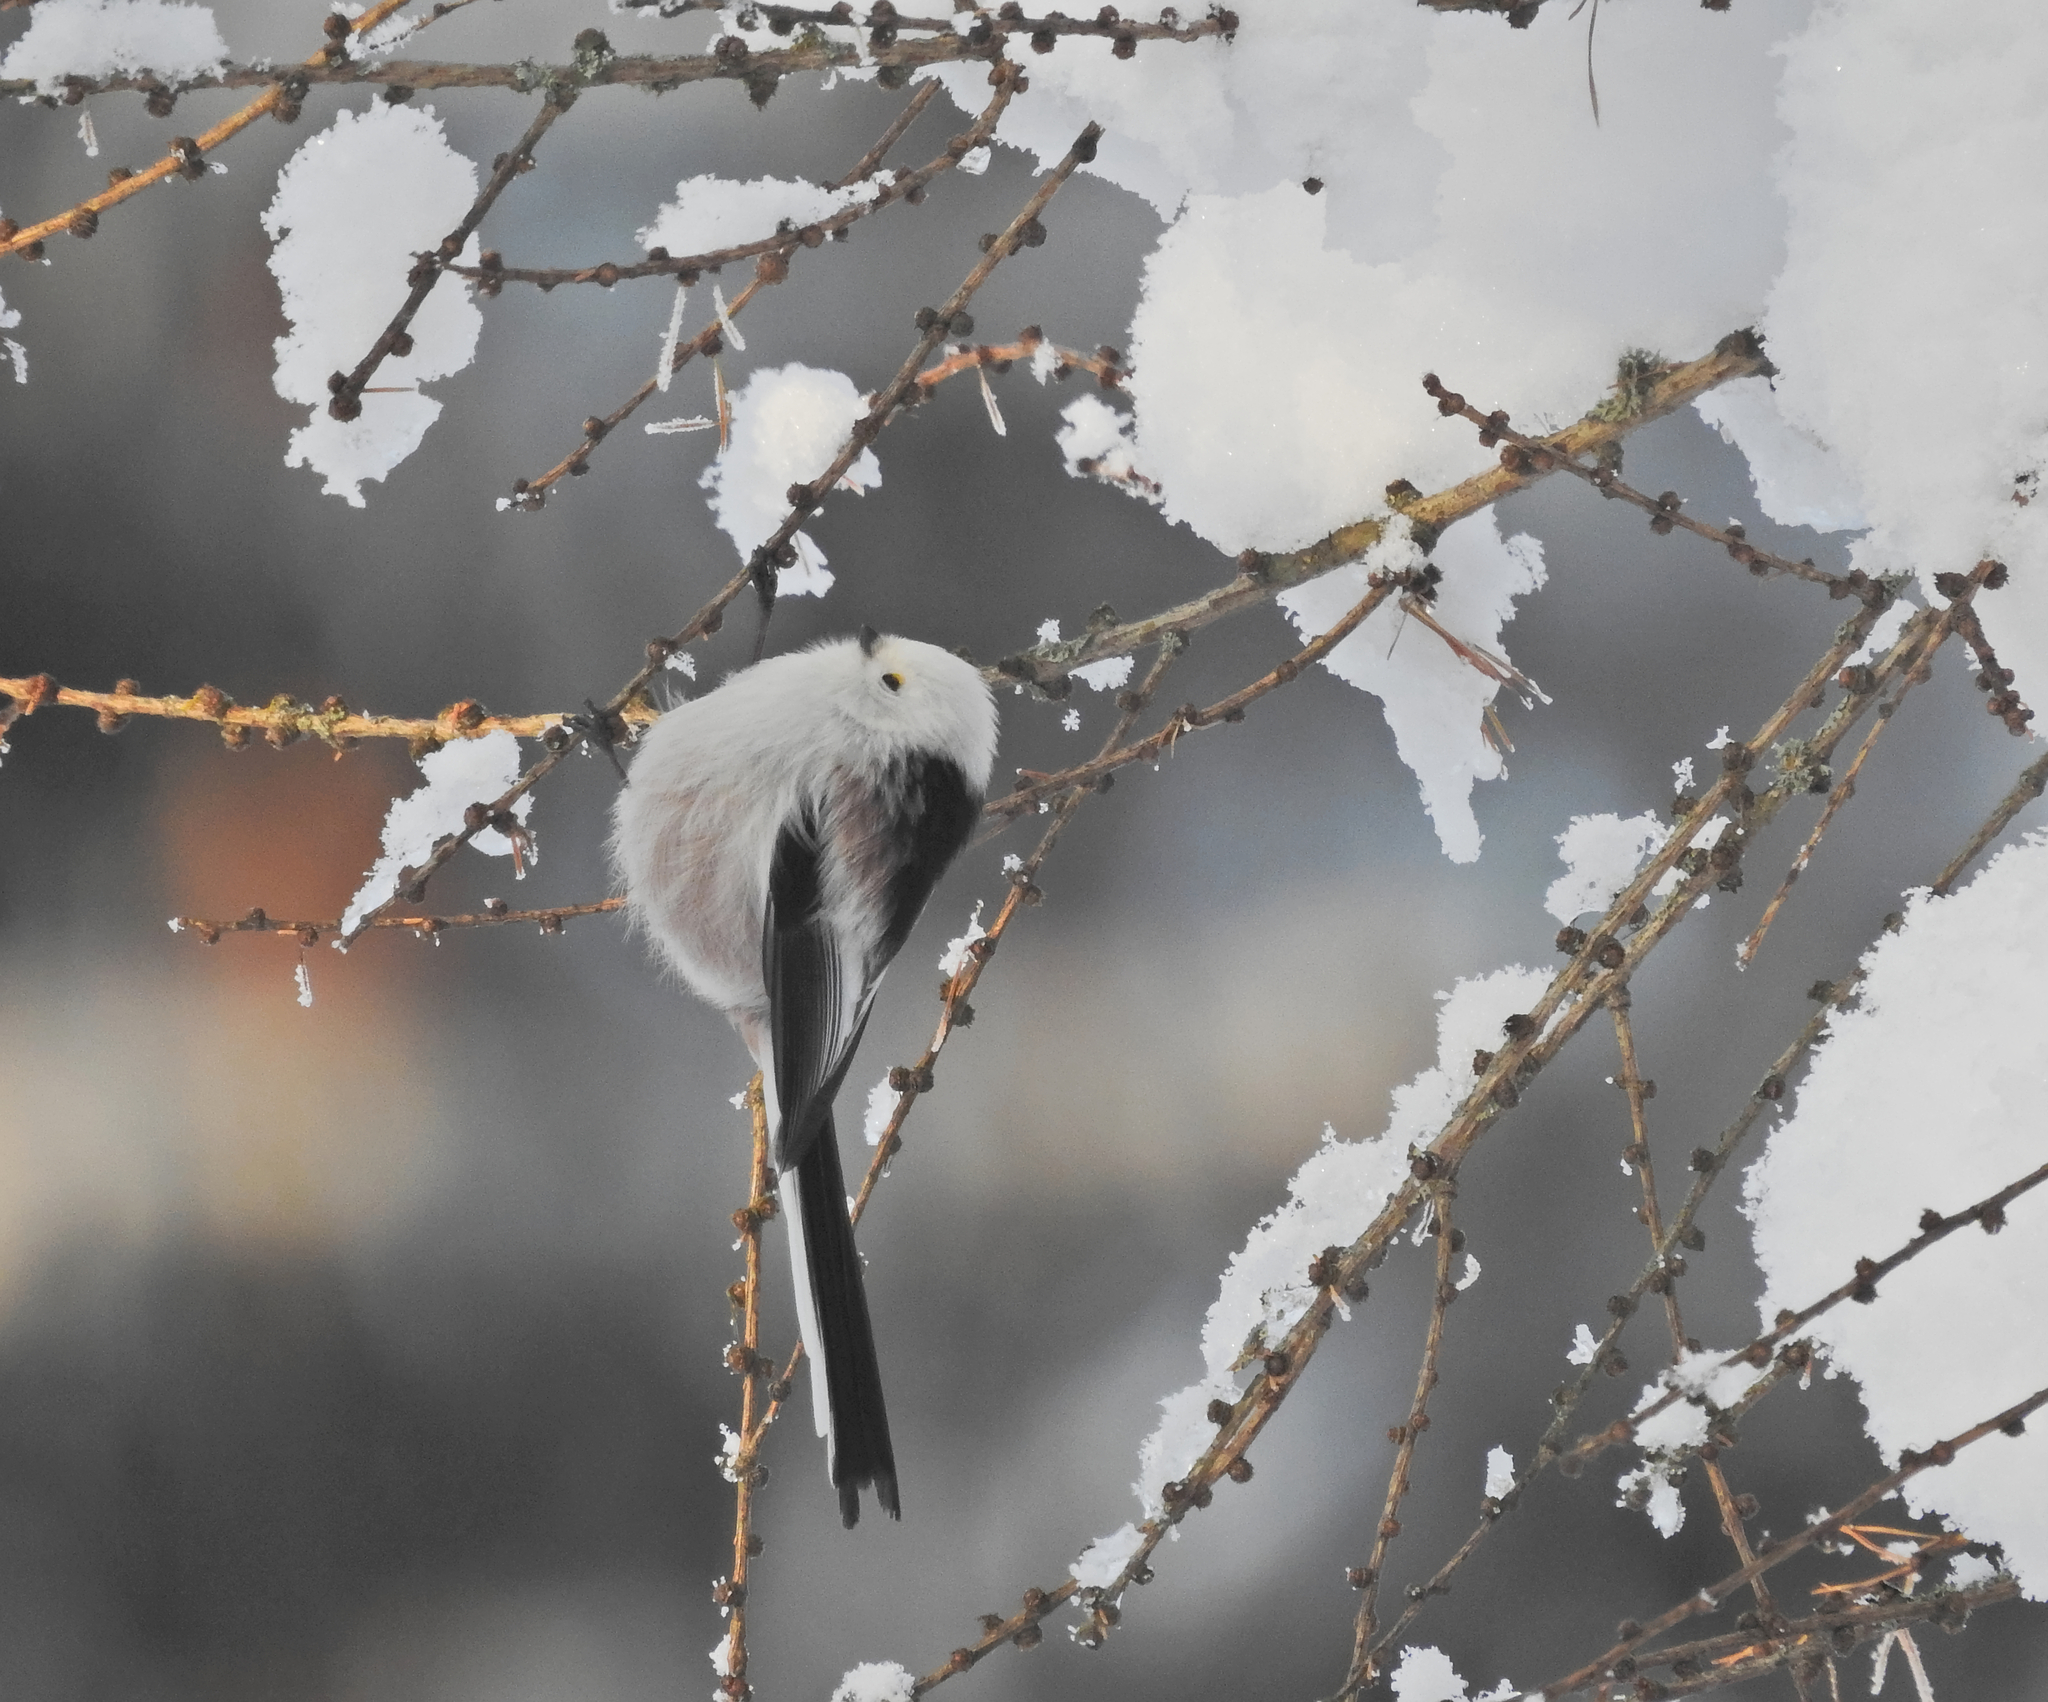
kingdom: Animalia
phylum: Chordata
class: Aves
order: Passeriformes
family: Aegithalidae
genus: Aegithalos
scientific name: Aegithalos caudatus
